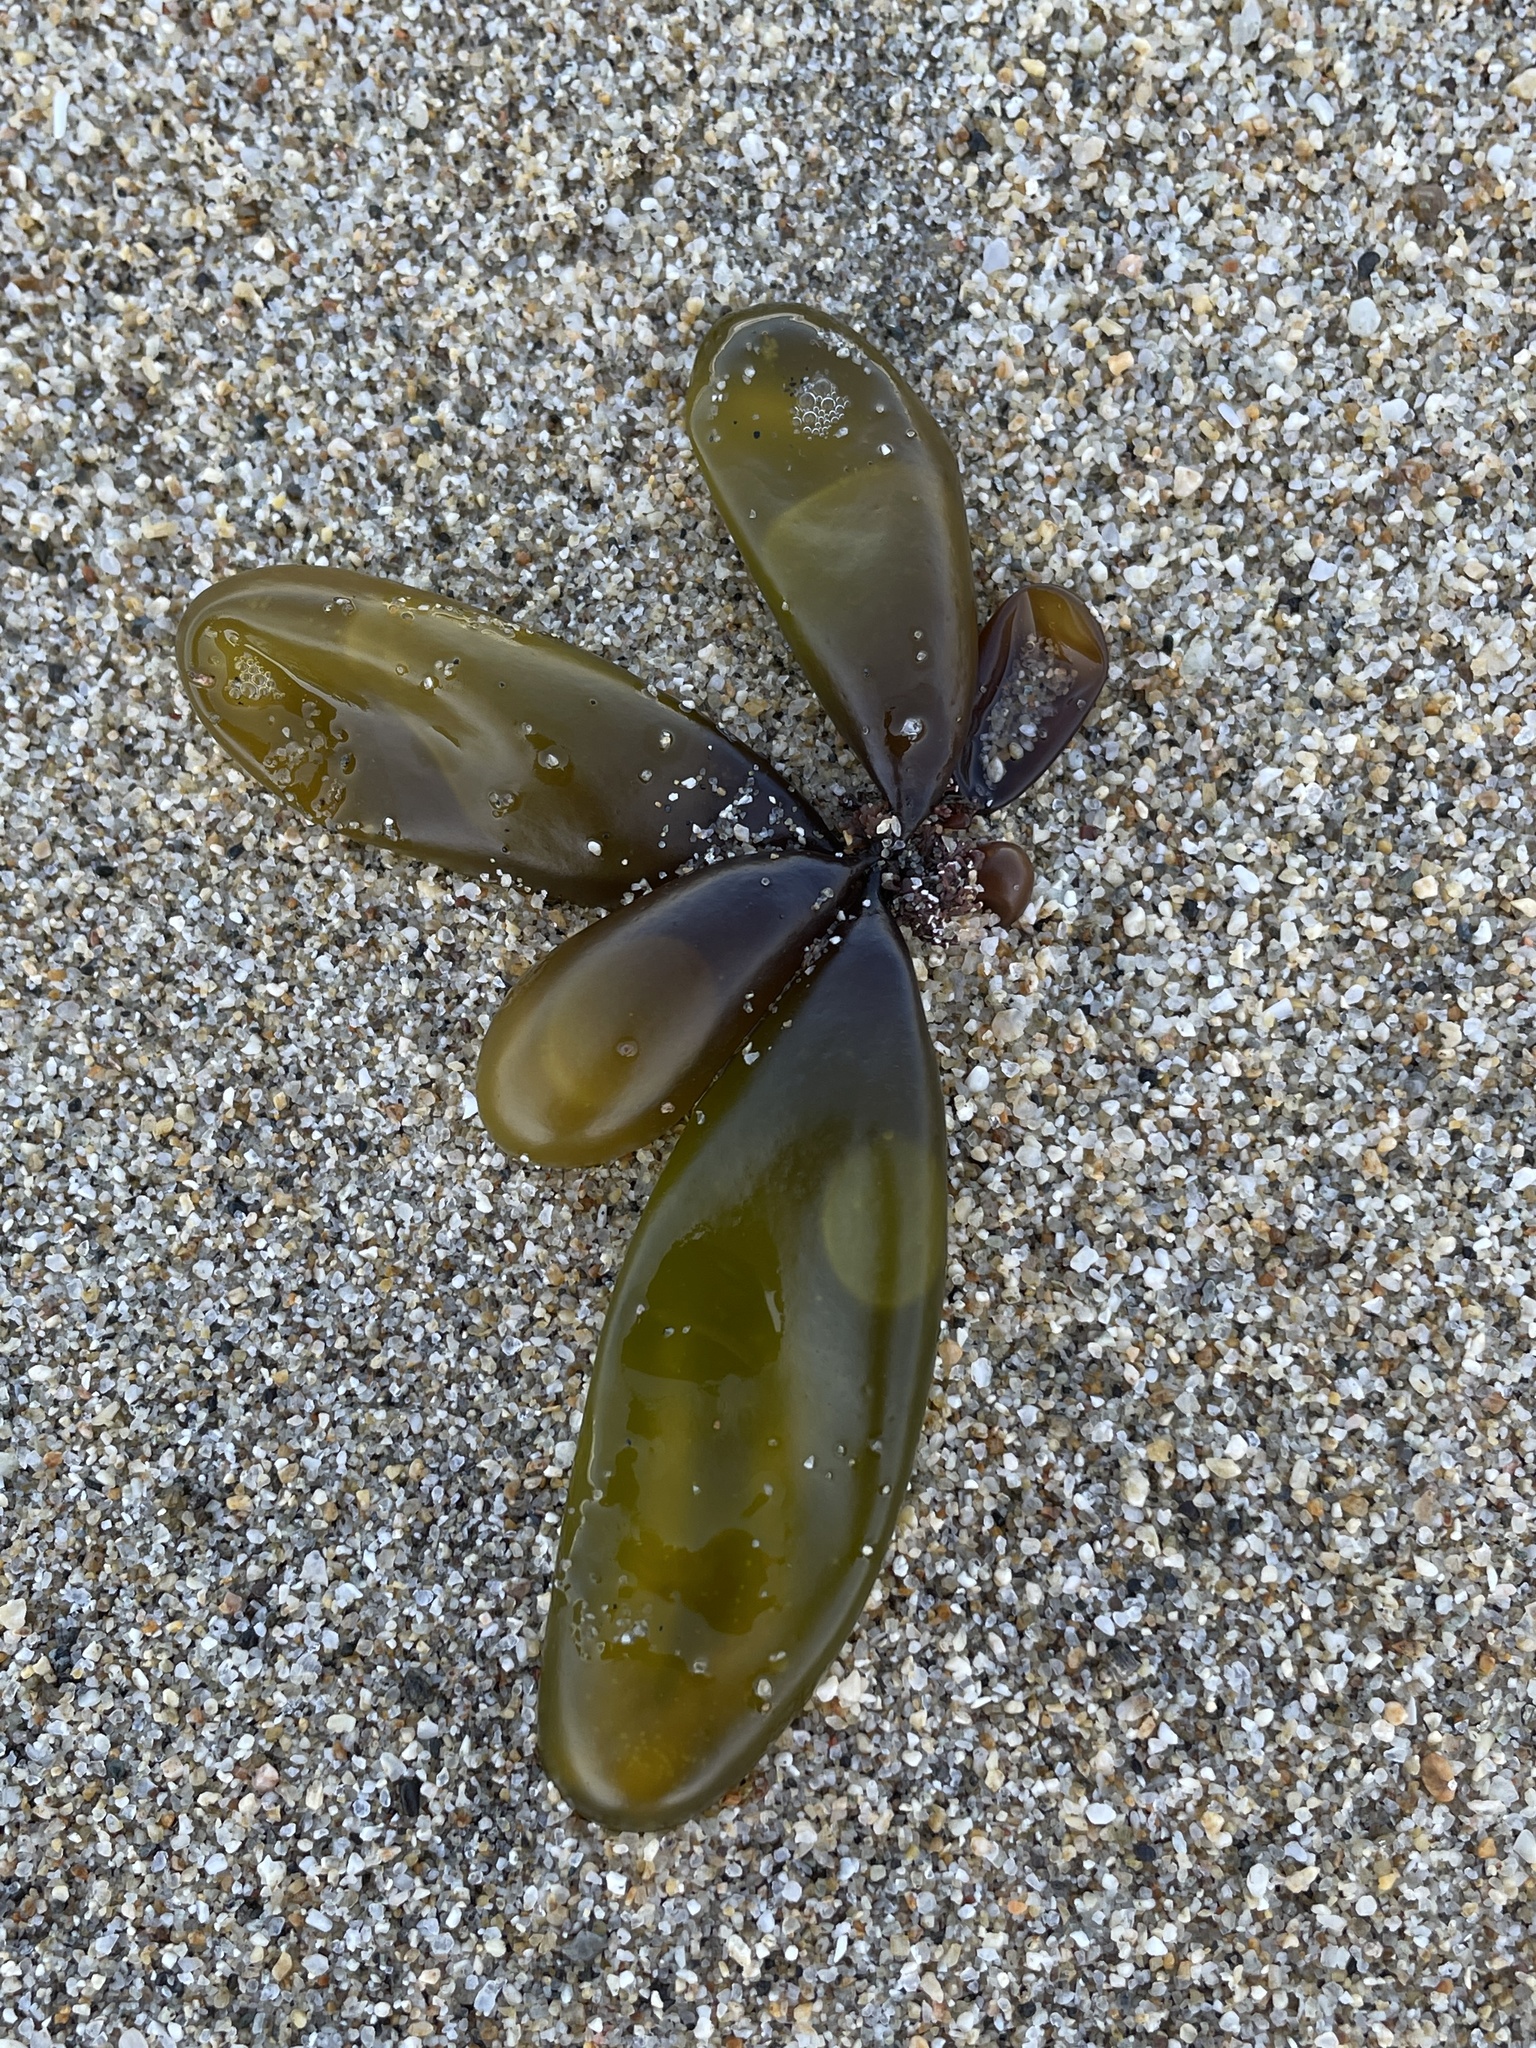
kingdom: Plantae
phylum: Rhodophyta
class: Florideophyceae
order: Palmariales
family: Palmariaceae
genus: Halosaccion
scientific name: Halosaccion glandiforme
